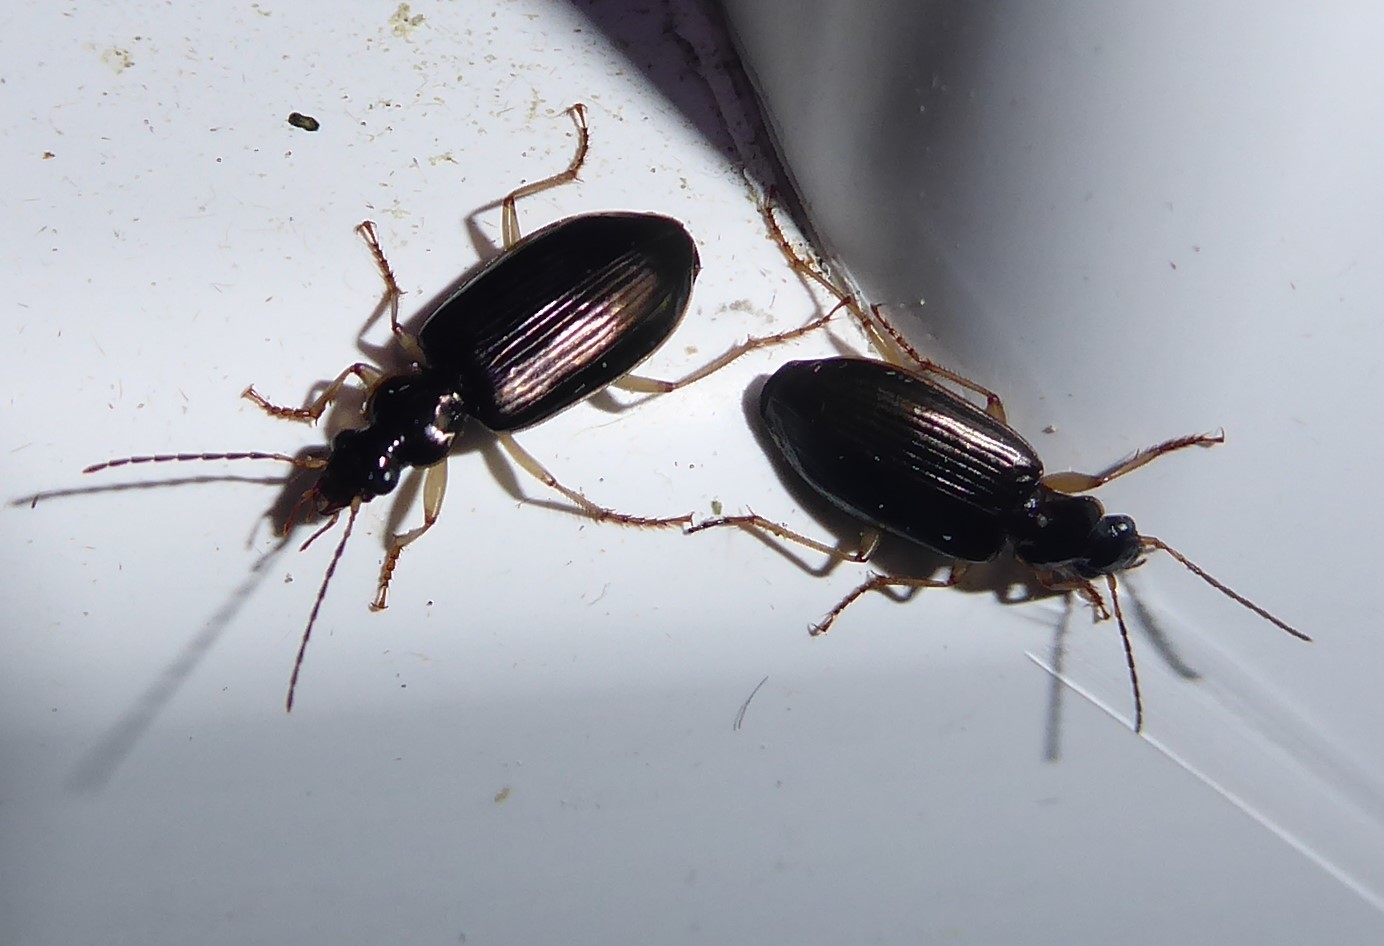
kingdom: Animalia
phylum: Arthropoda
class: Insecta
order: Coleoptera
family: Carabidae
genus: Notagonum
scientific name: Notagonum submetallicum
